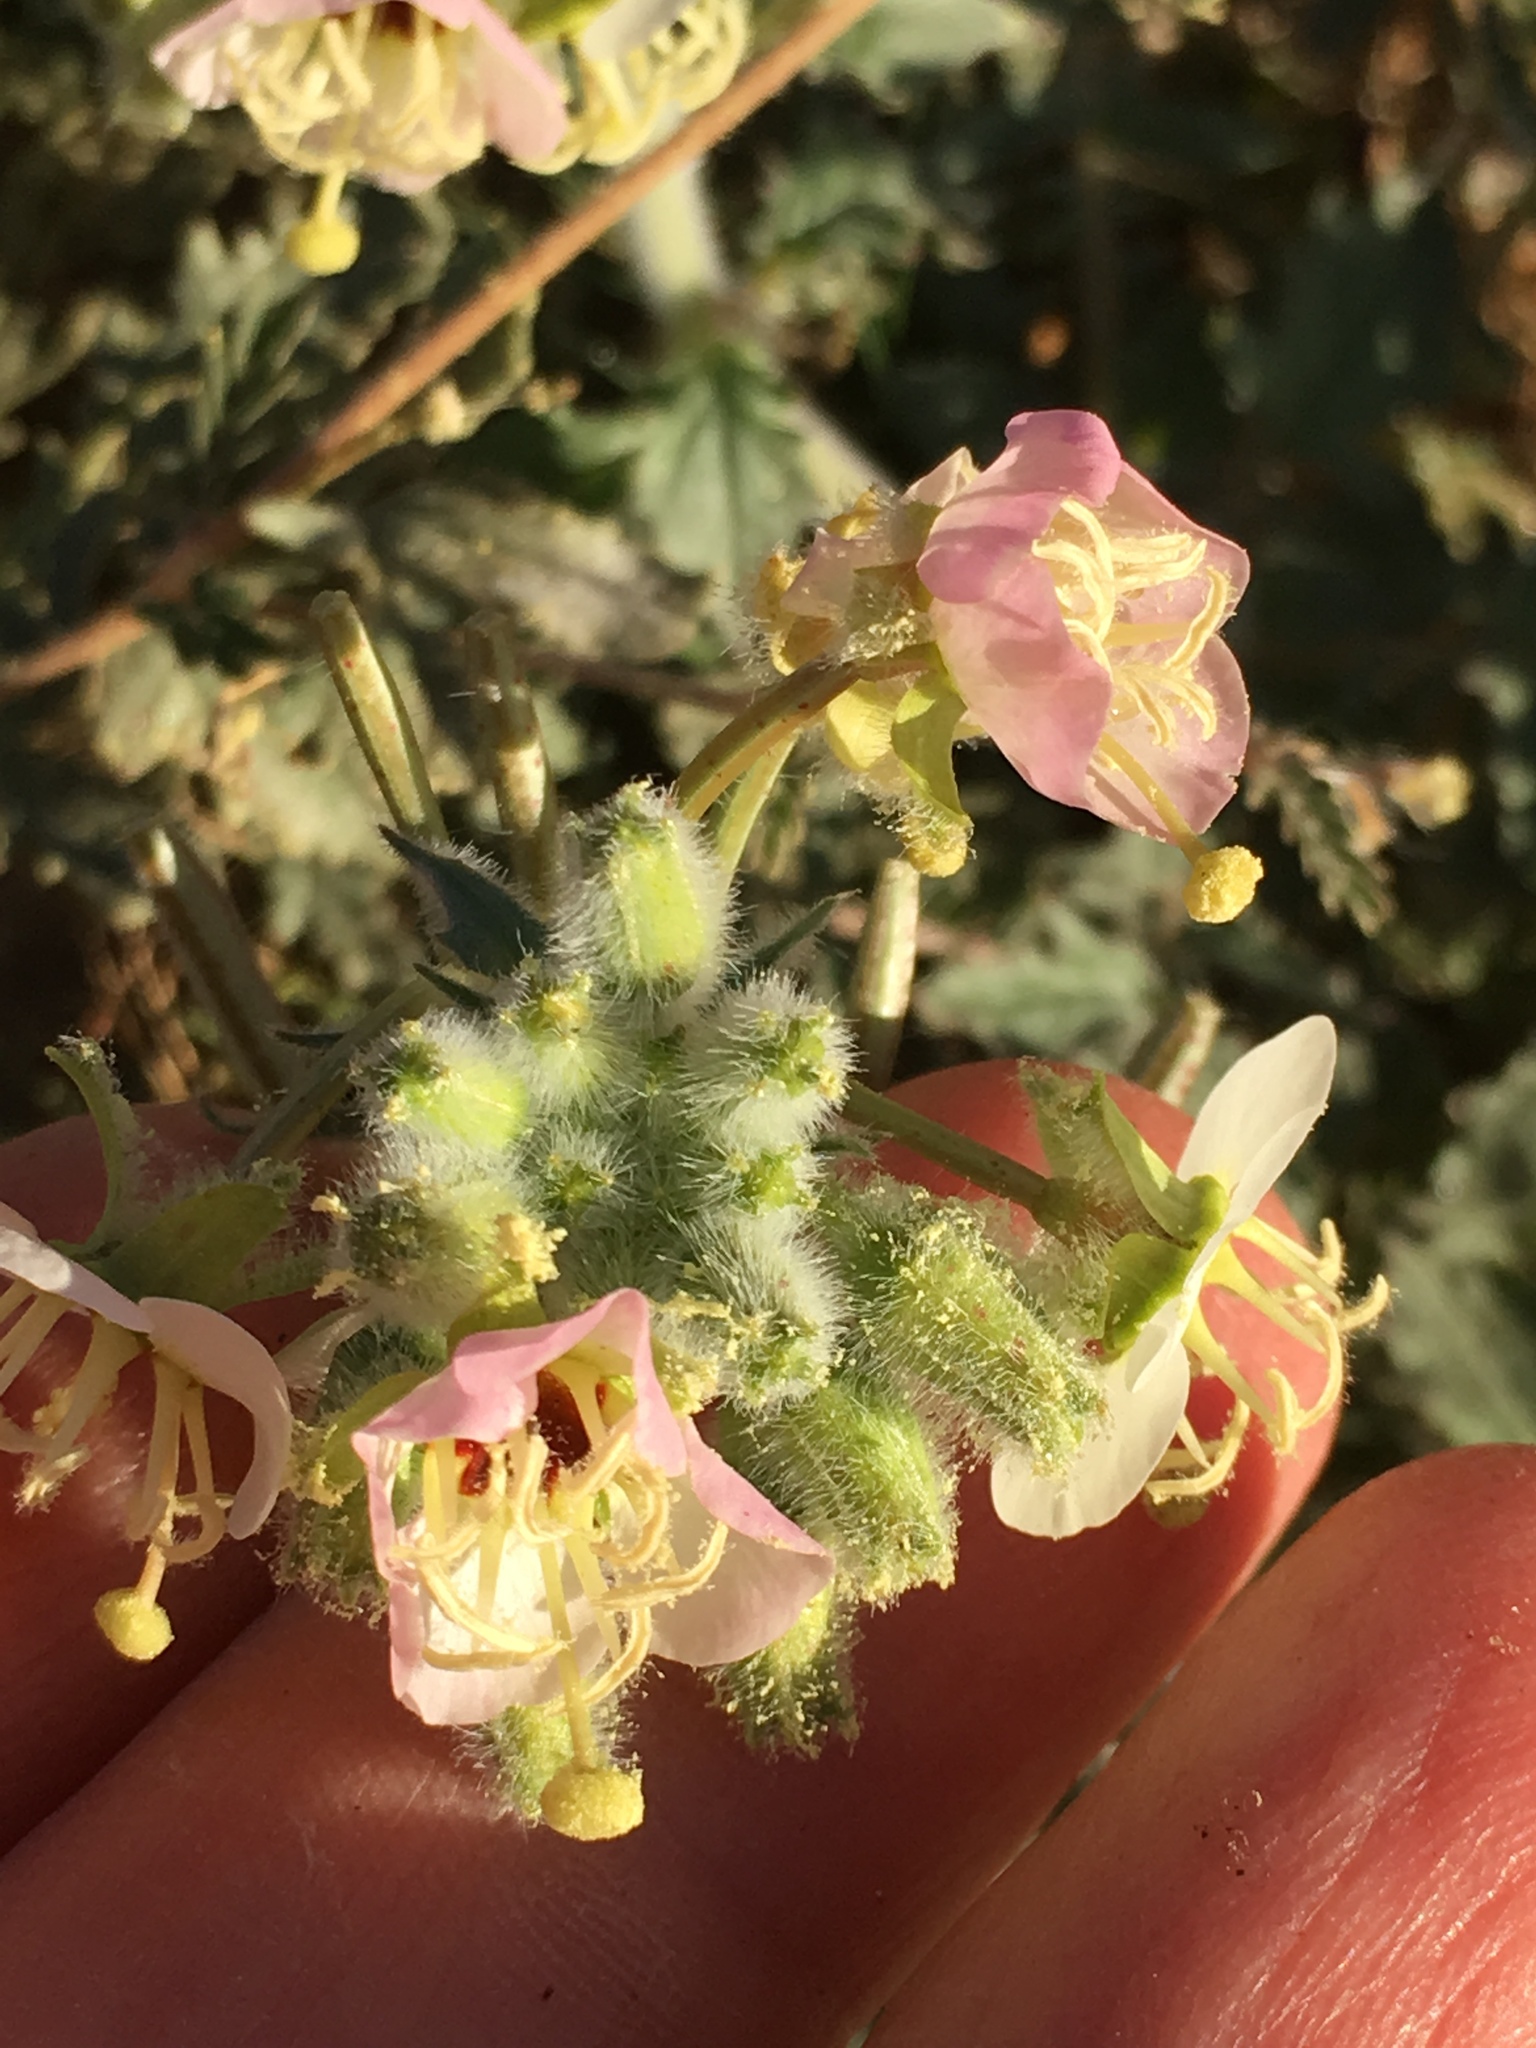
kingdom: Plantae
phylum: Tracheophyta
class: Magnoliopsida
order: Myrtales
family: Onagraceae
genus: Chylismia
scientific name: Chylismia claviformis
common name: Browneyes
